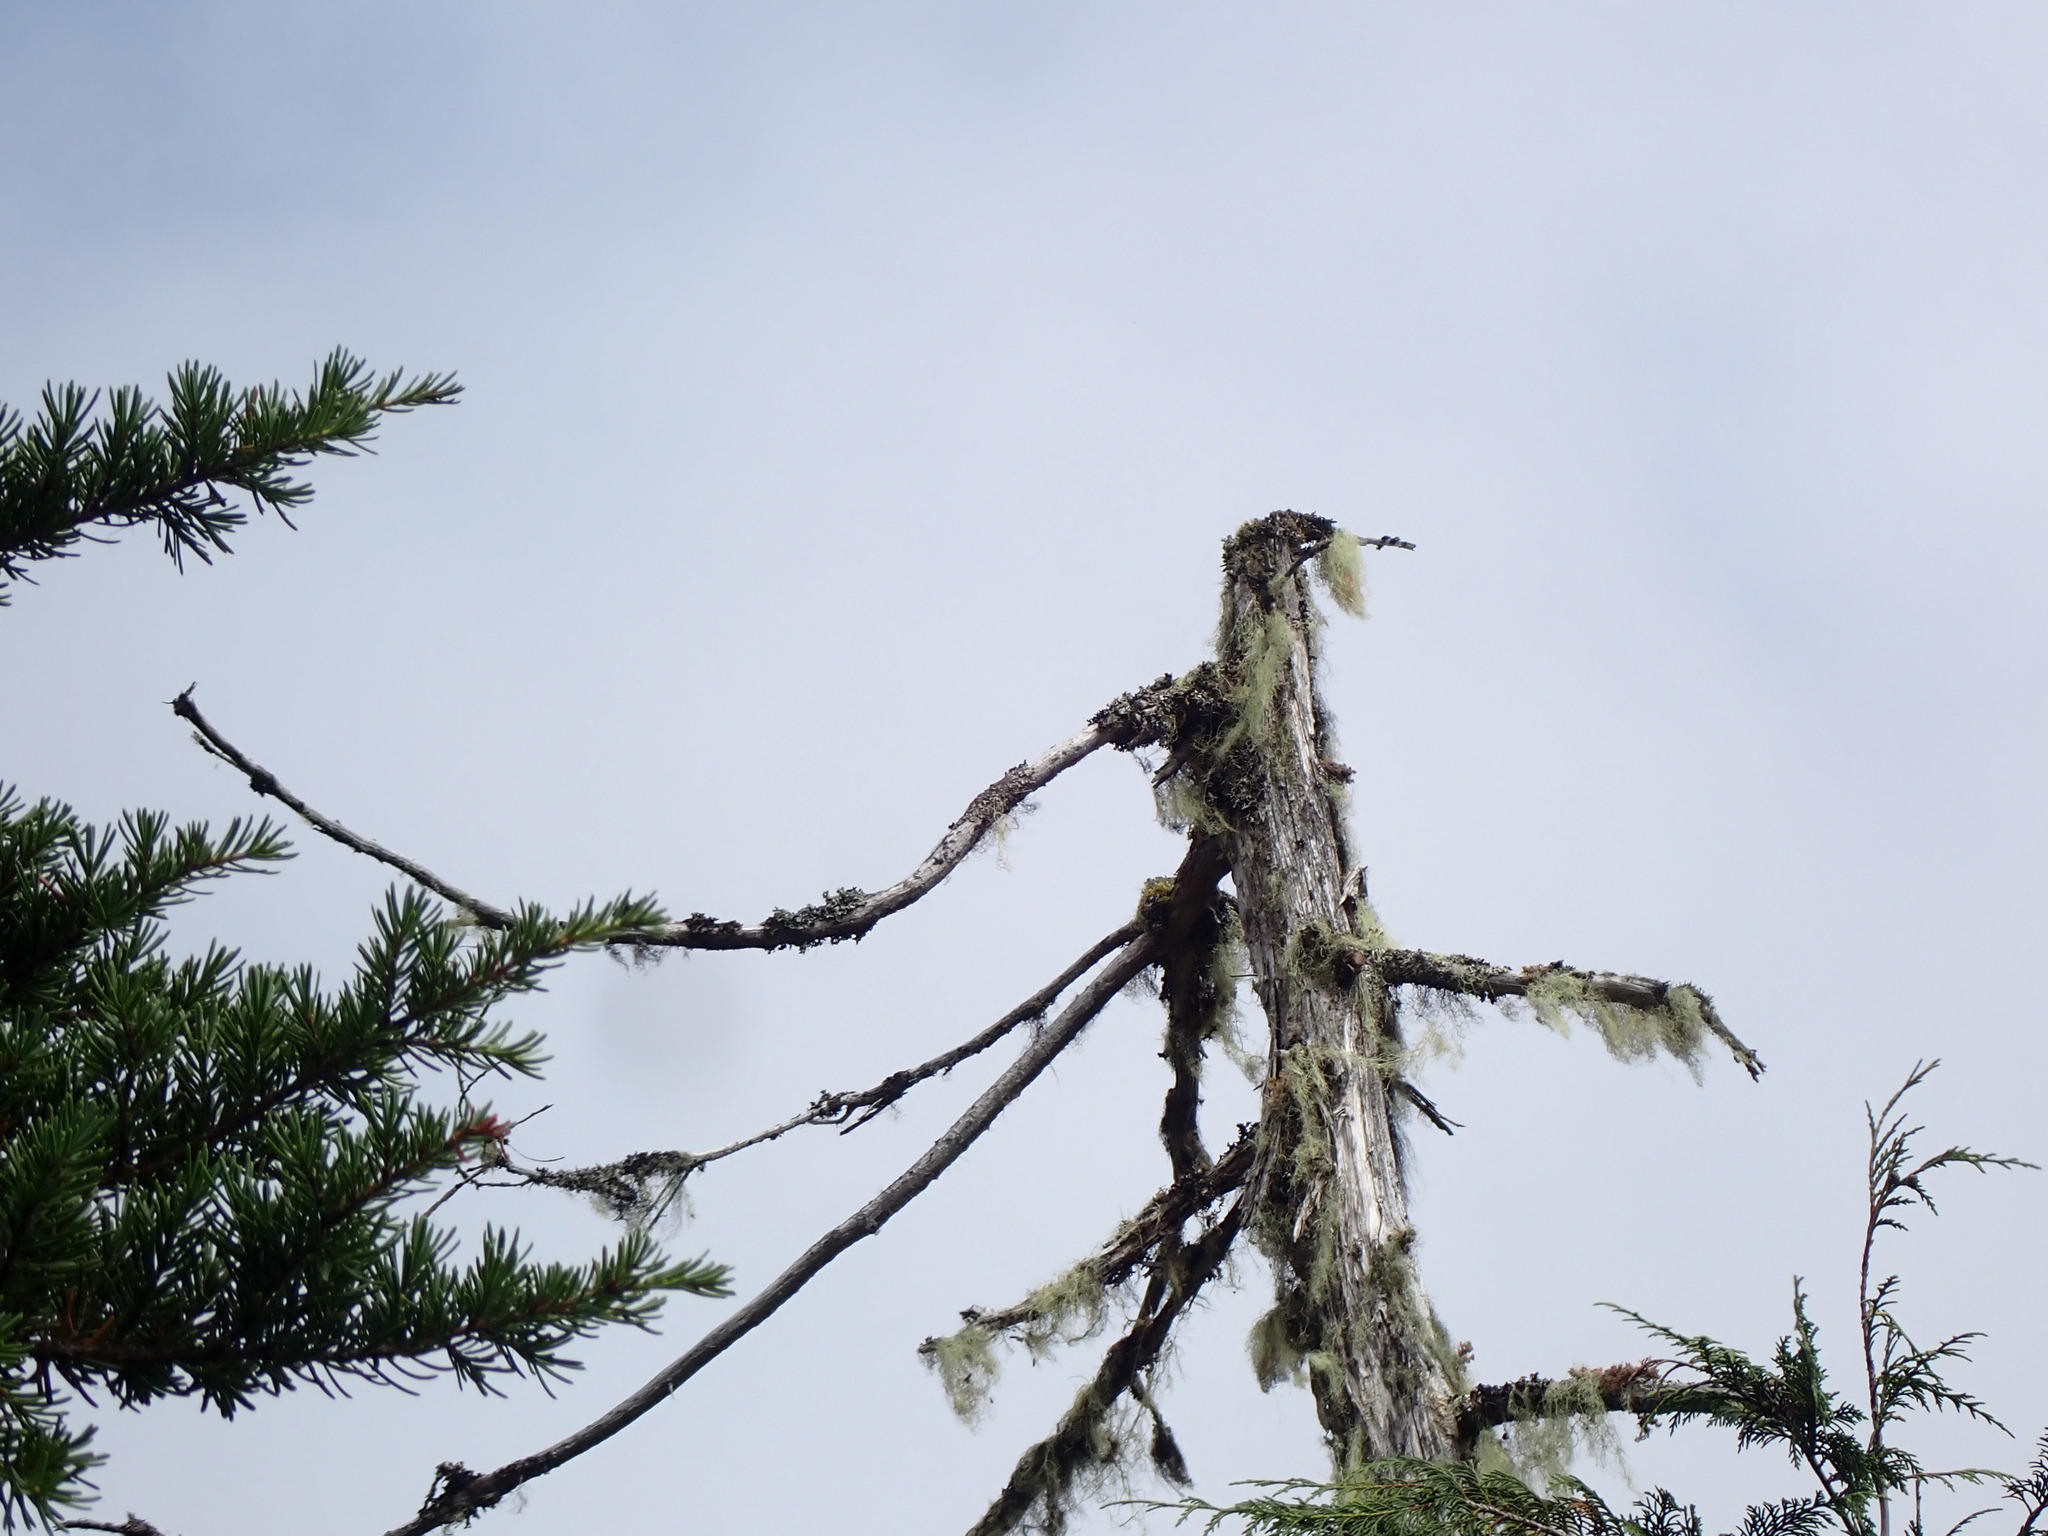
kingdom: Fungi
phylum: Ascomycota
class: Lecanoromycetes
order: Caliciales
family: Caliciaceae
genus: Acroscyphus
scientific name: Acroscyphus sphaerophoroides
